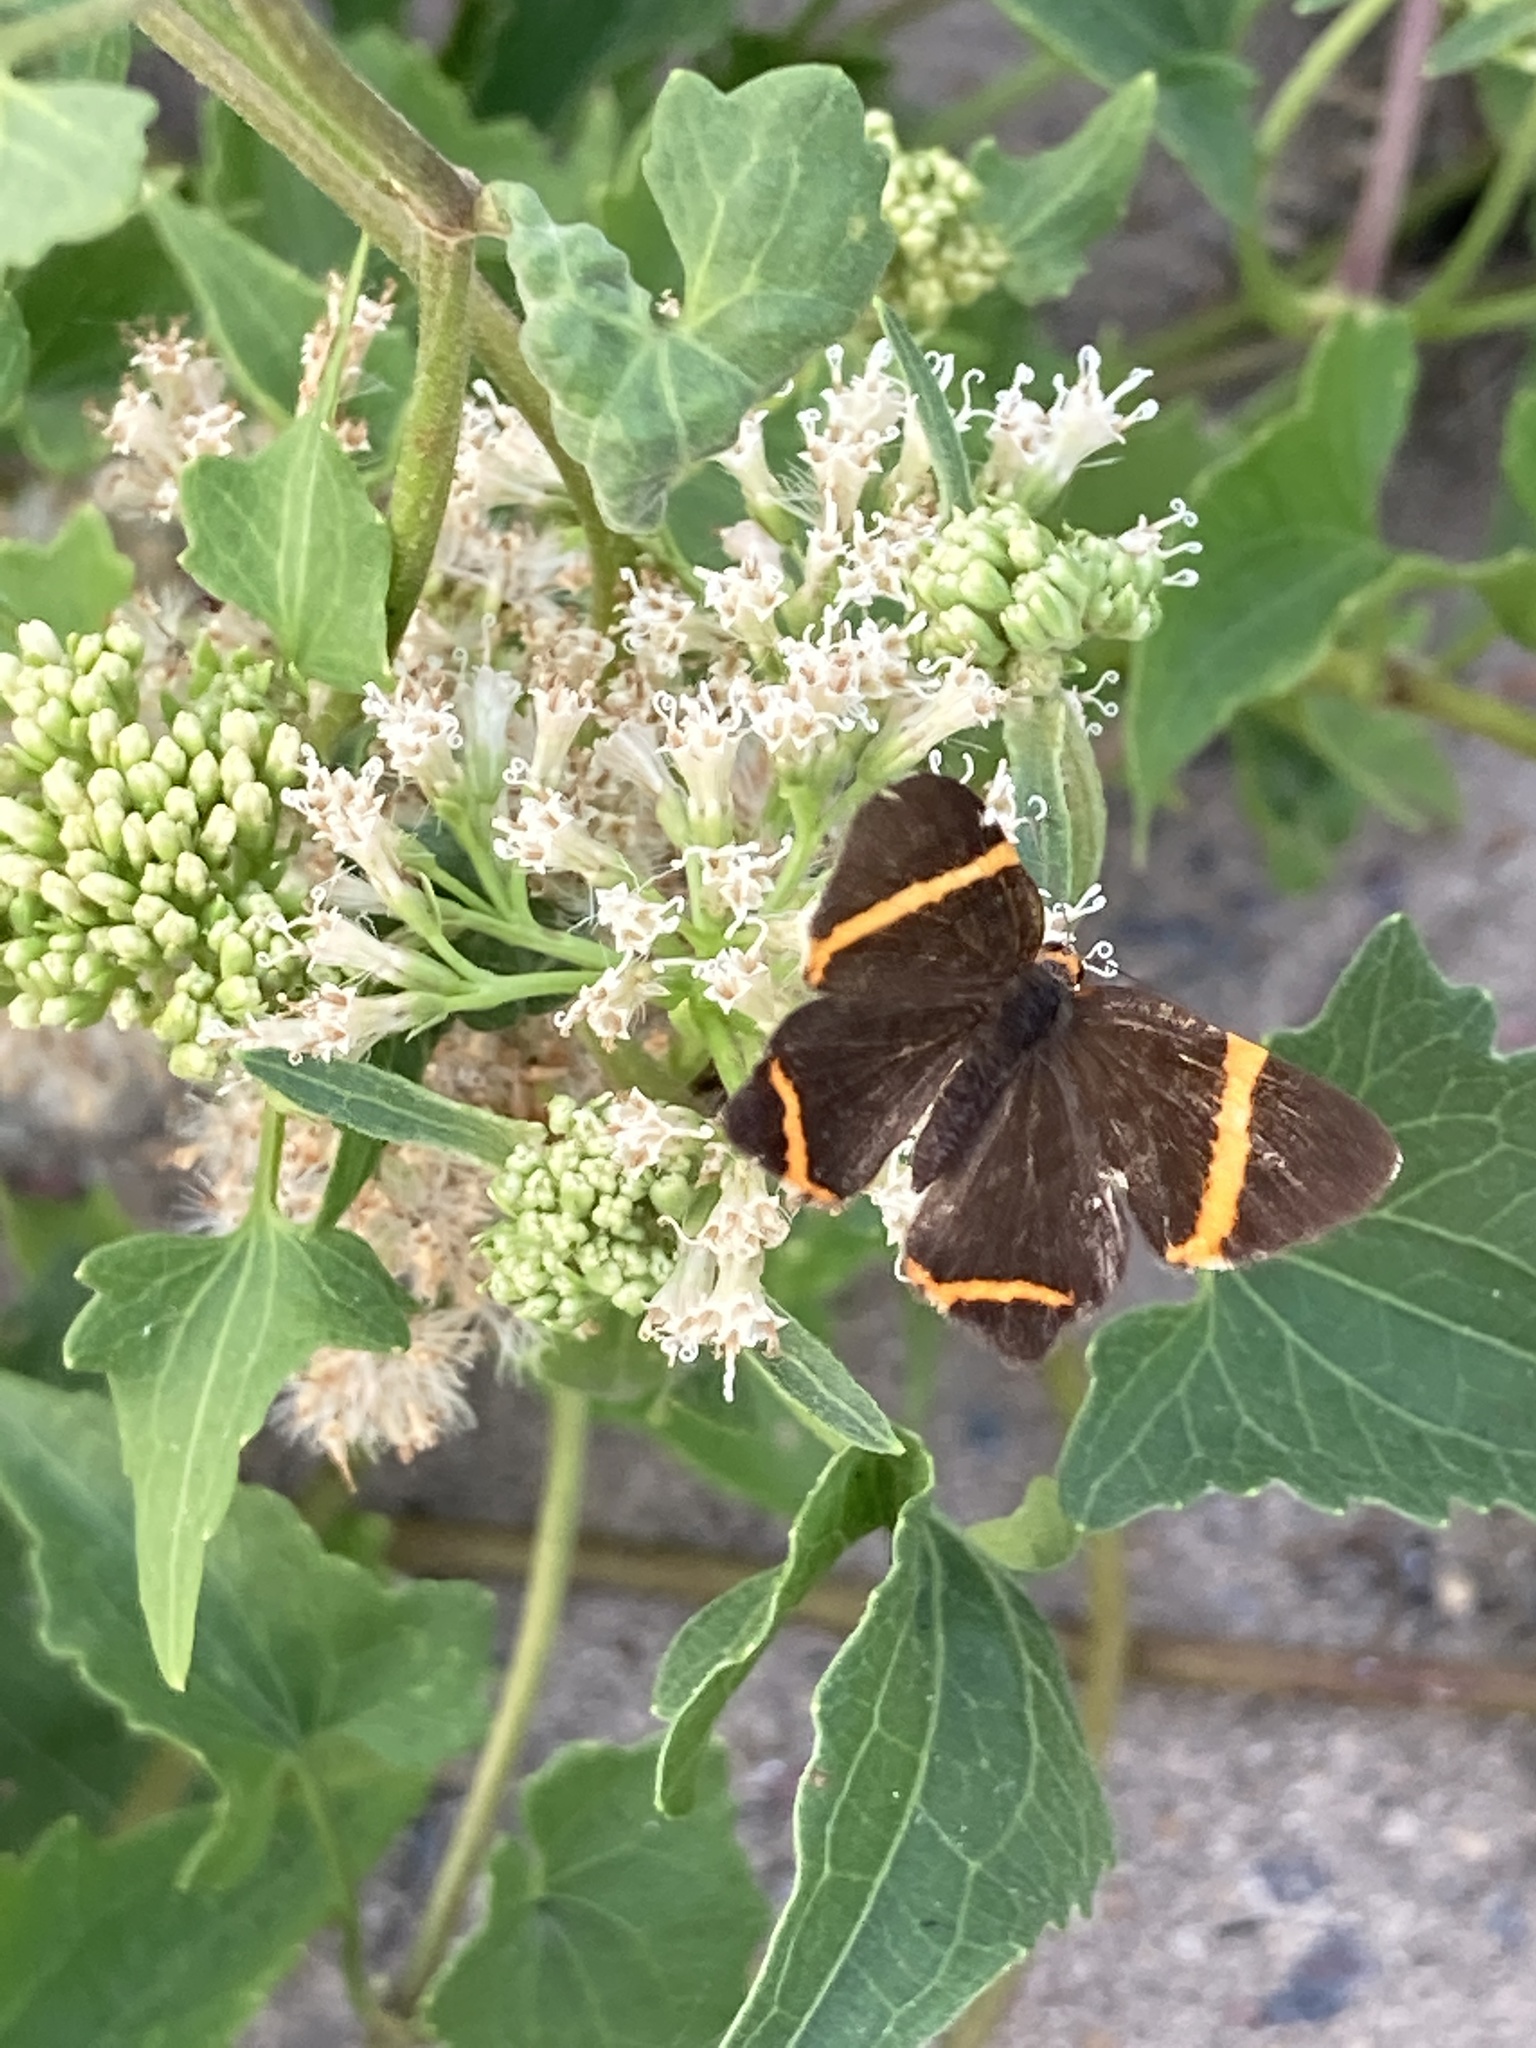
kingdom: Animalia
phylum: Arthropoda
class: Insecta
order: Lepidoptera
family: Riodinidae
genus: Riodina
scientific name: Riodina lysippoides
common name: Little dancer metalmark
